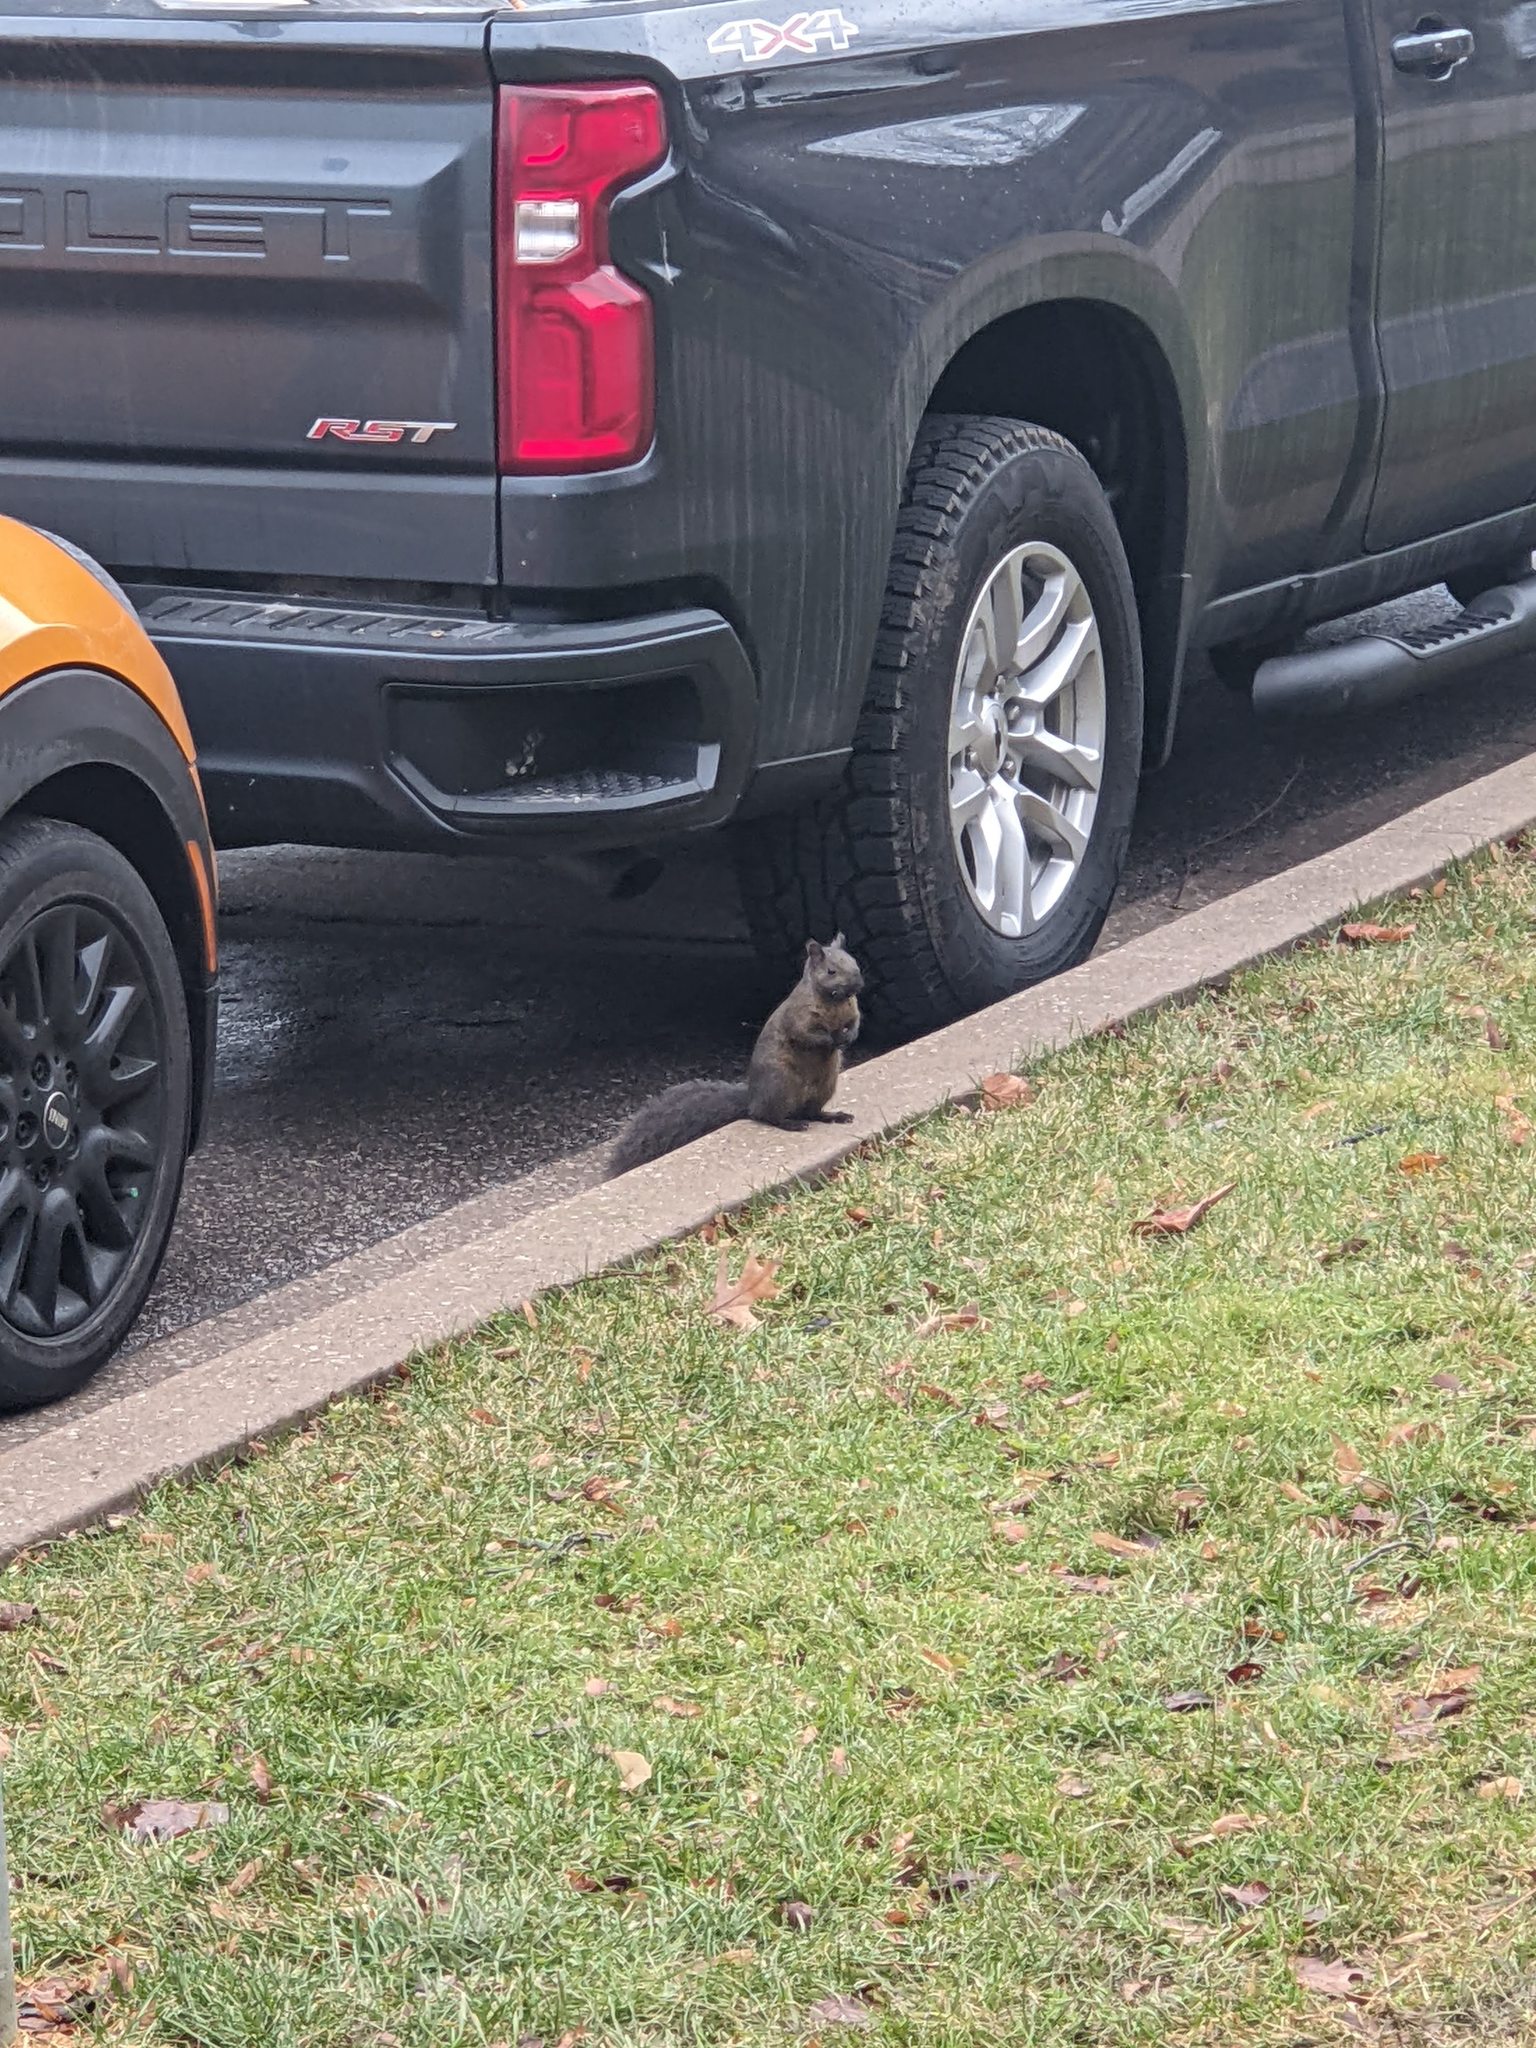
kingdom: Animalia
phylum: Chordata
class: Mammalia
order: Rodentia
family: Sciuridae
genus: Sciurus
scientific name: Sciurus carolinensis
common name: Eastern gray squirrel
